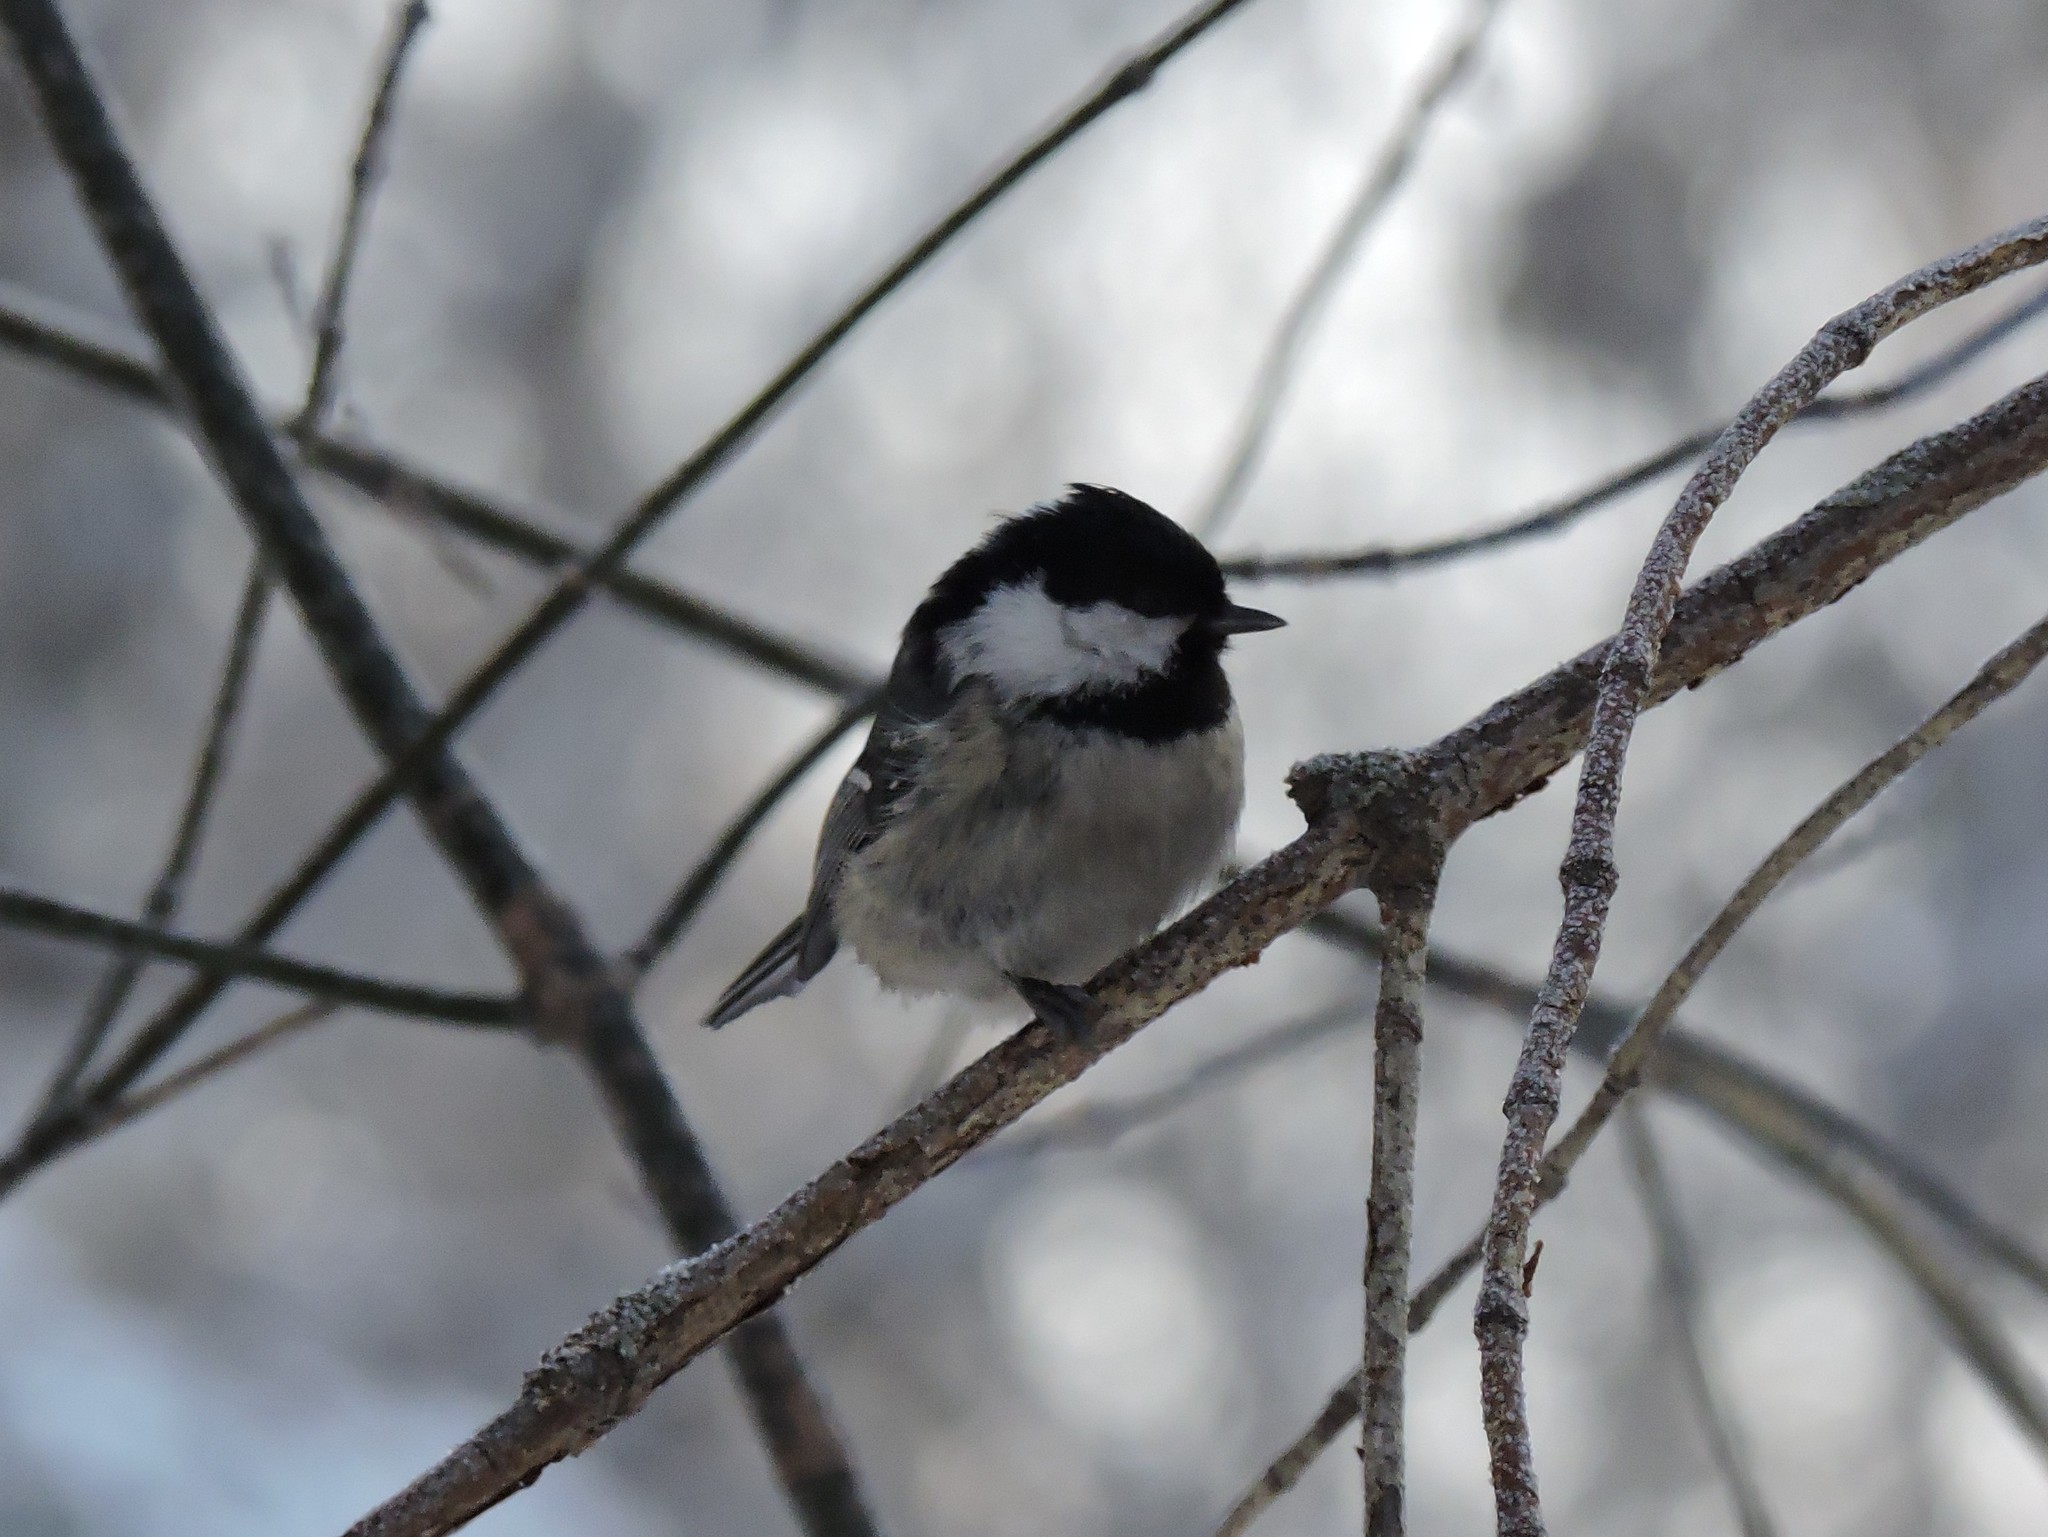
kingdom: Animalia
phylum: Chordata
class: Aves
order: Passeriformes
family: Paridae
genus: Periparus
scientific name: Periparus ater
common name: Coal tit
